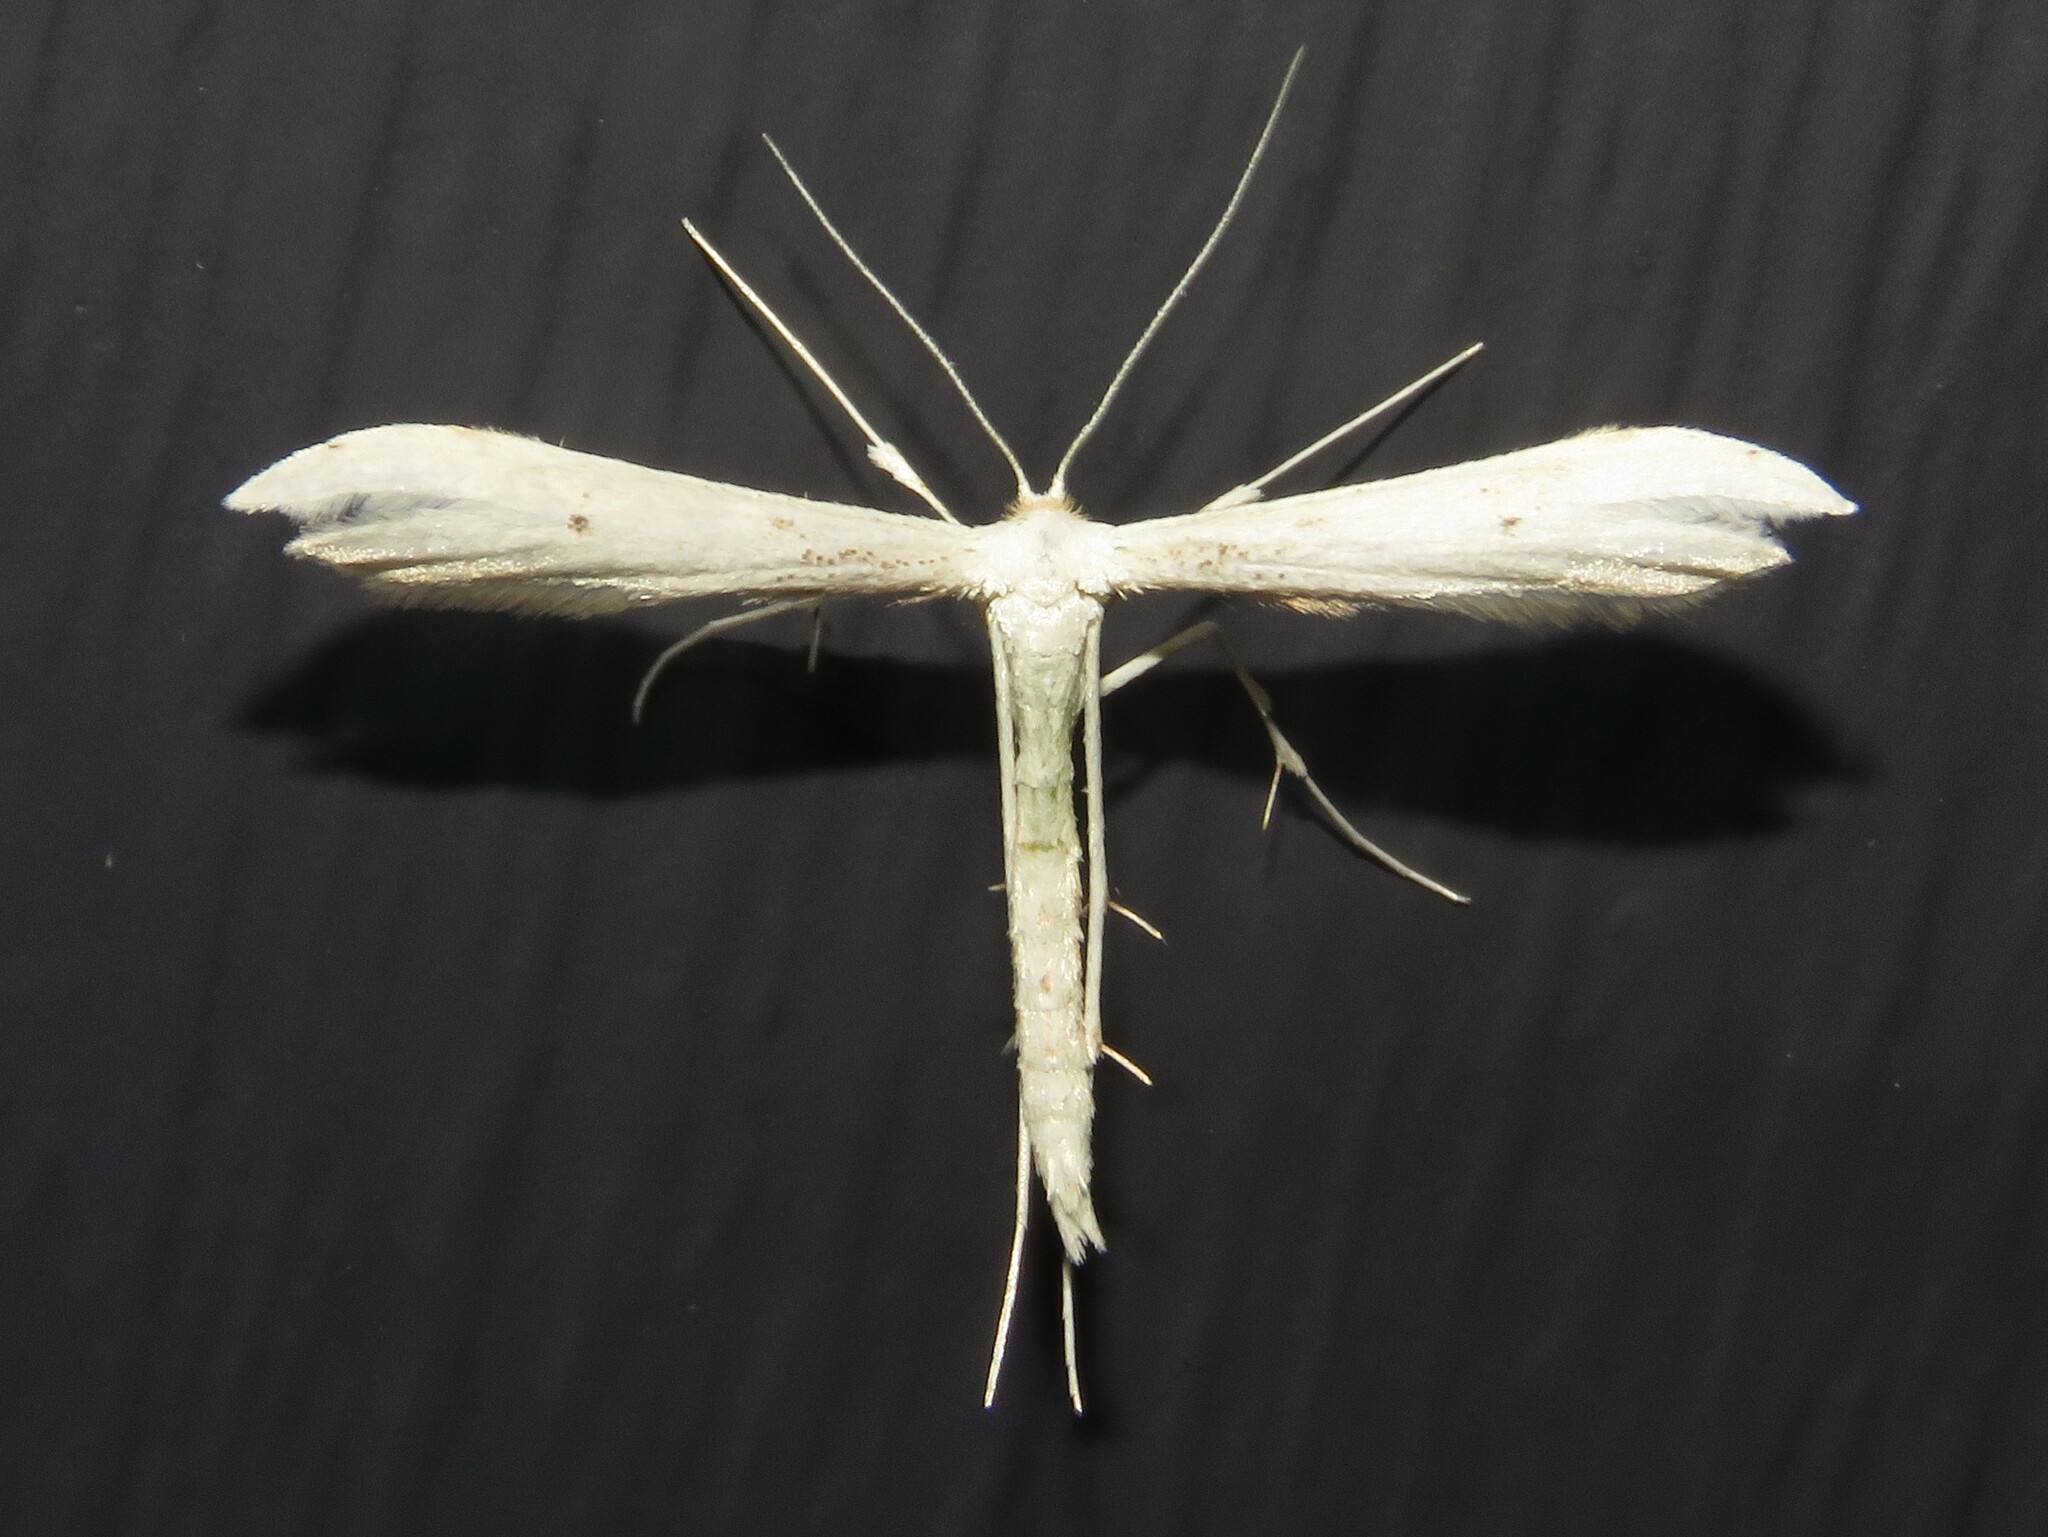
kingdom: Animalia
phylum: Arthropoda
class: Insecta
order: Lepidoptera
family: Pterophoridae
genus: Hellinsia
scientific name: Hellinsia elliottii
